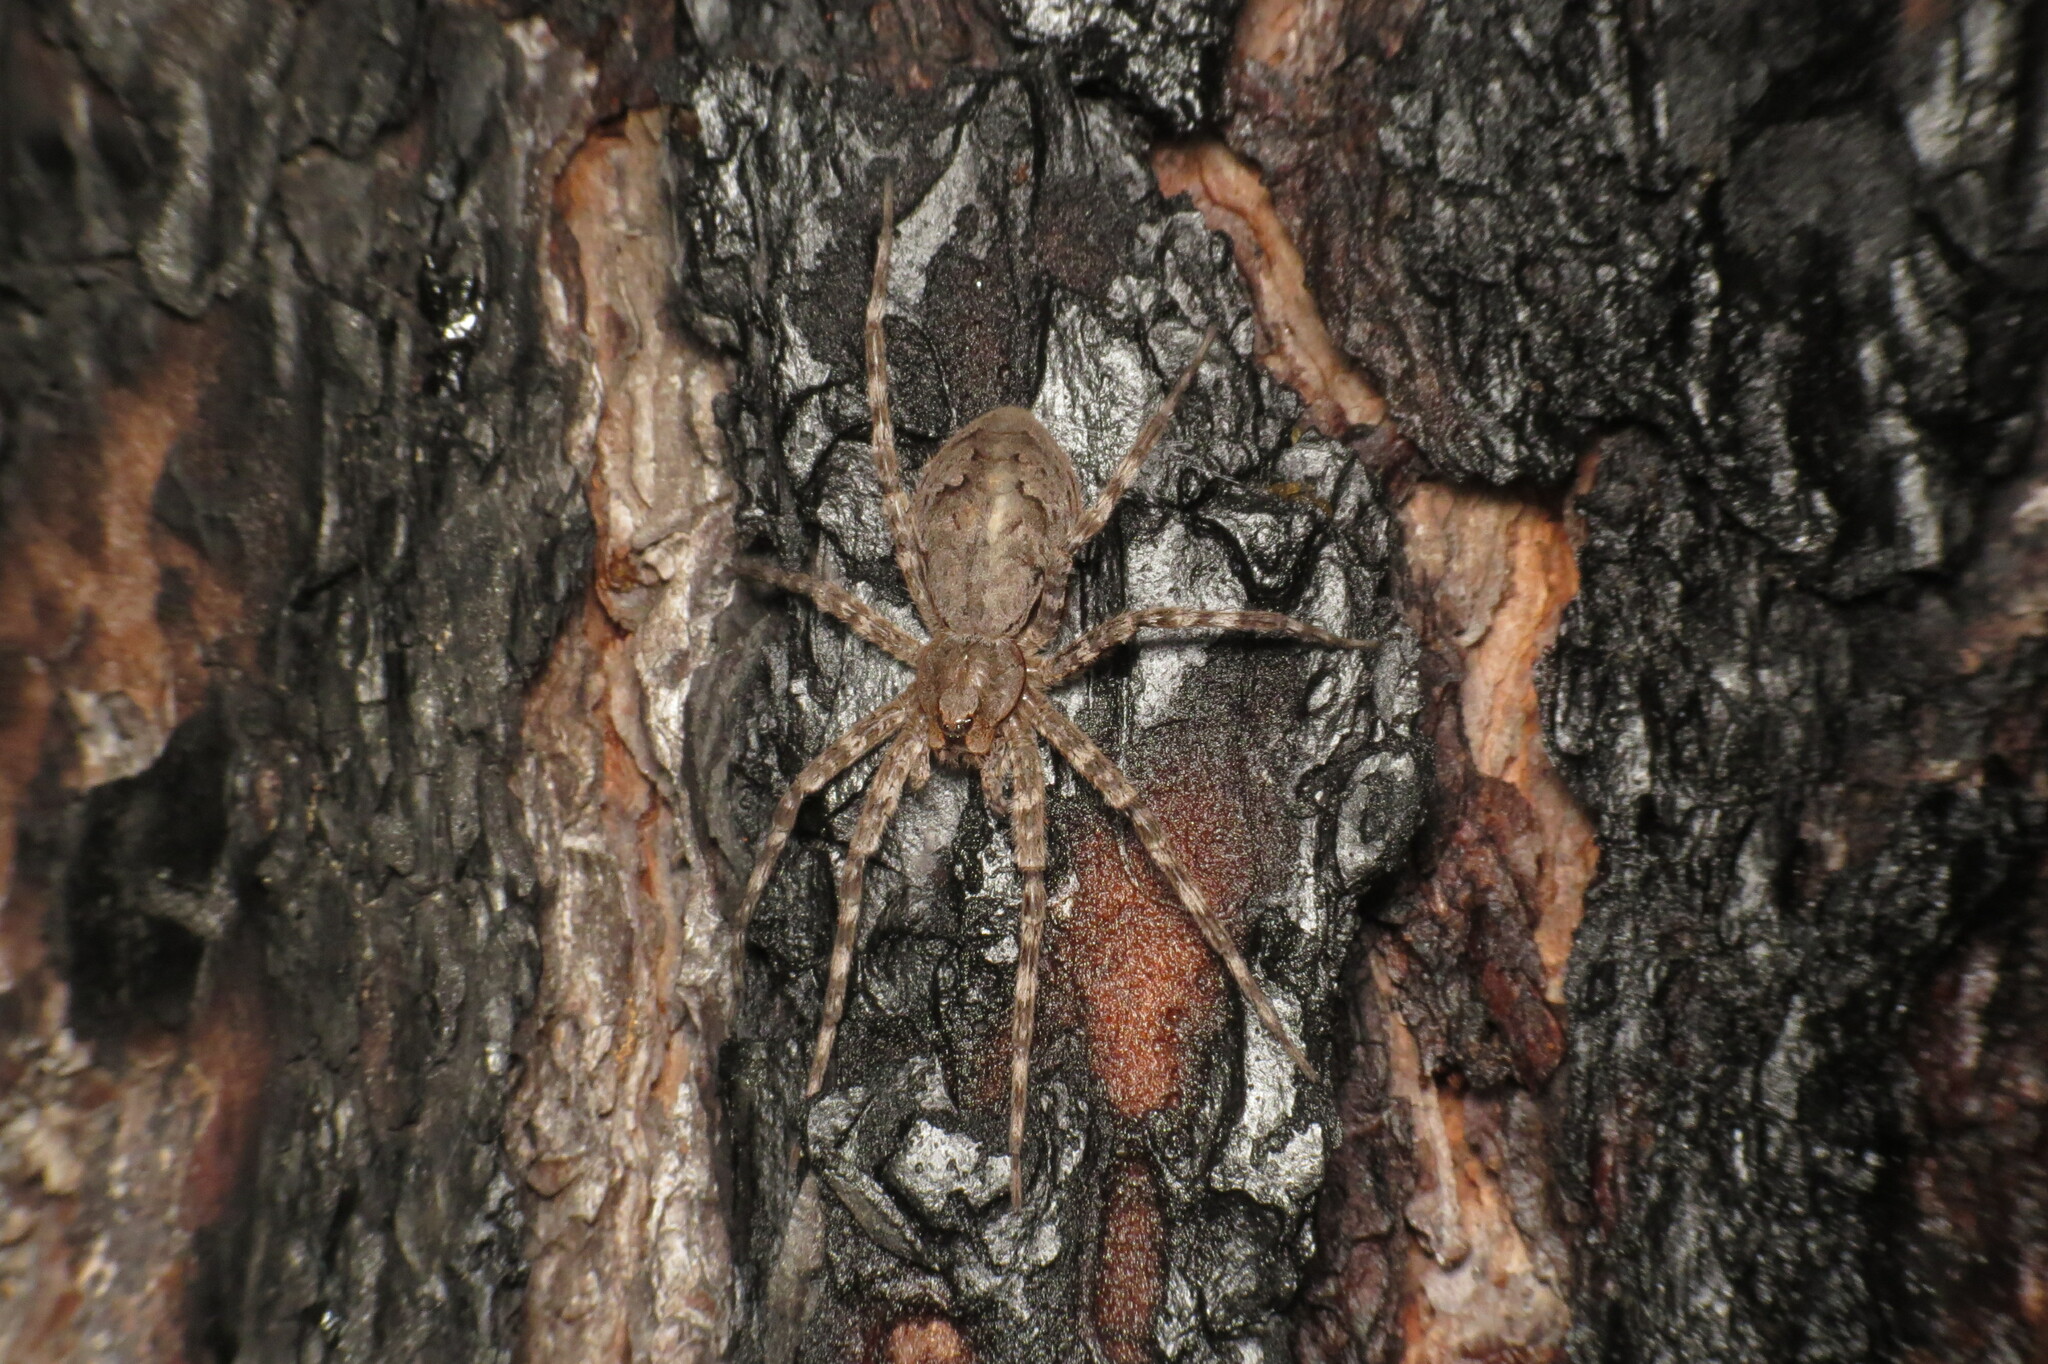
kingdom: Animalia
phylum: Arthropoda
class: Arachnida
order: Araneae
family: Pisauridae
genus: Dolomedes
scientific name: Dolomedes tenebrosus
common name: Dark fishing spider
